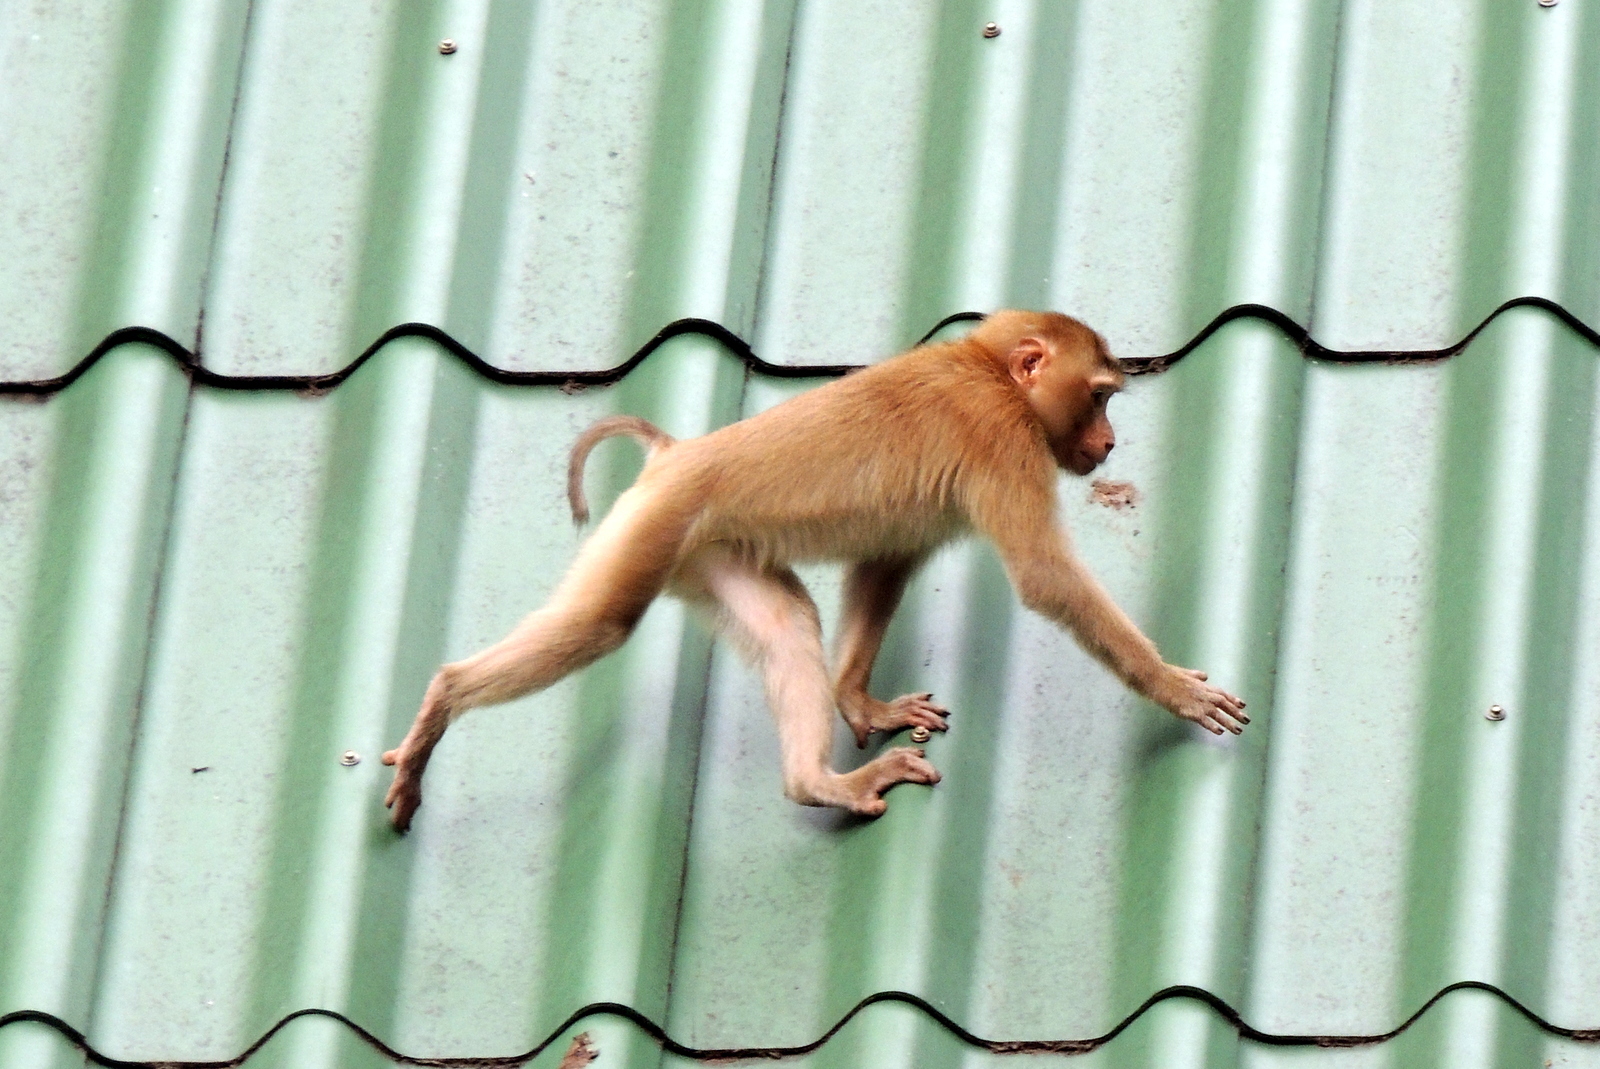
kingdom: Animalia
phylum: Chordata
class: Mammalia
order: Primates
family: Cercopithecidae
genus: Macaca
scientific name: Macaca leonina
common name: Northern pig-tailed macaque
